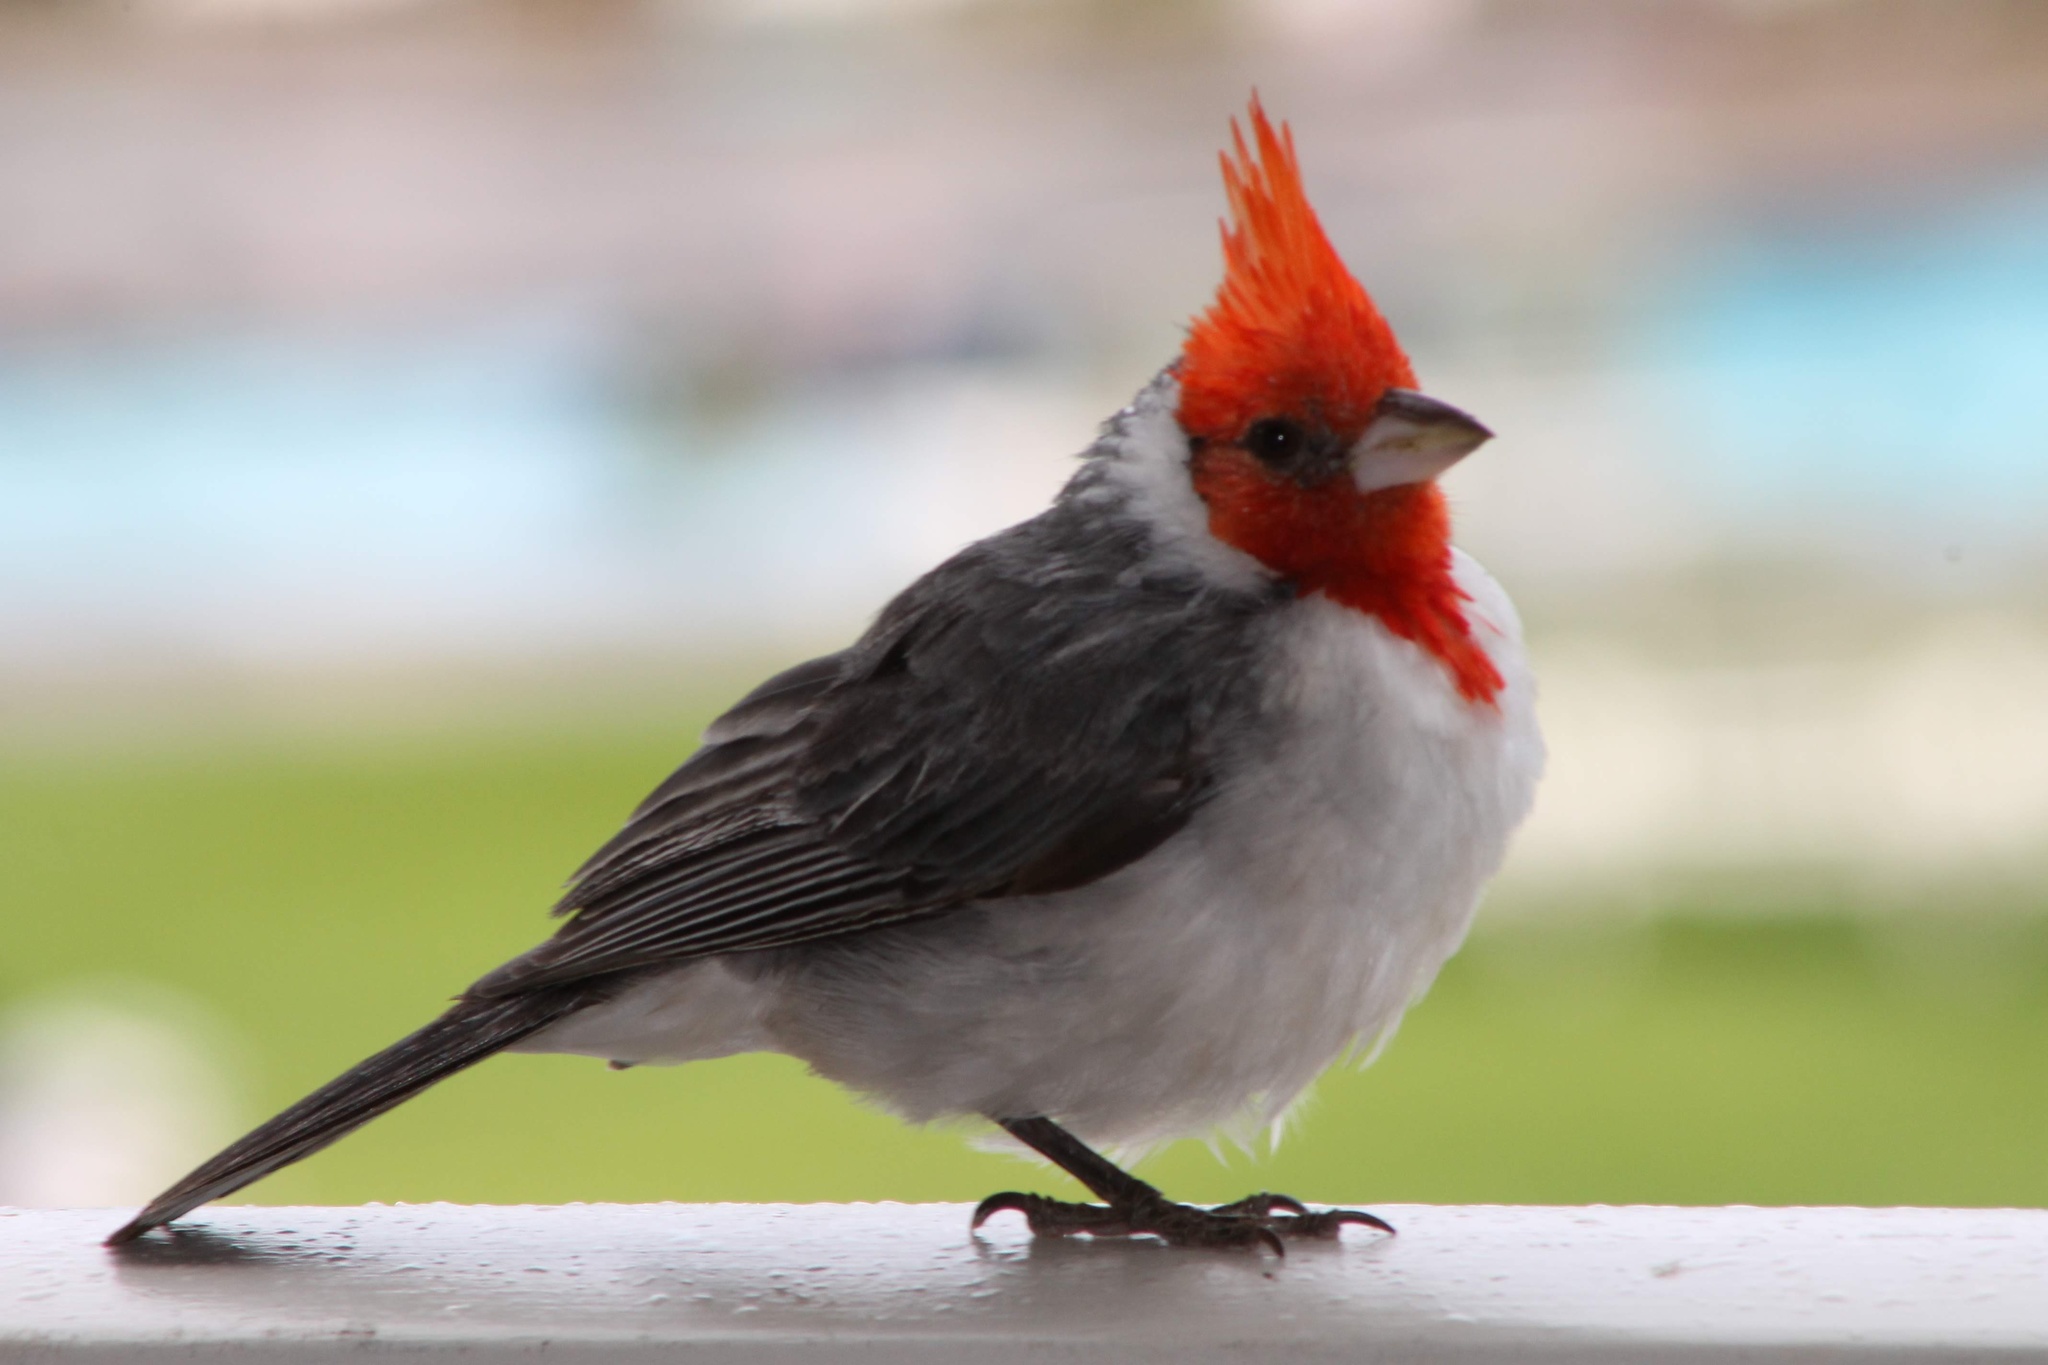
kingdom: Animalia
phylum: Chordata
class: Aves
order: Passeriformes
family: Thraupidae
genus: Paroaria
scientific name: Paroaria coronata
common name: Red-crested cardinal
